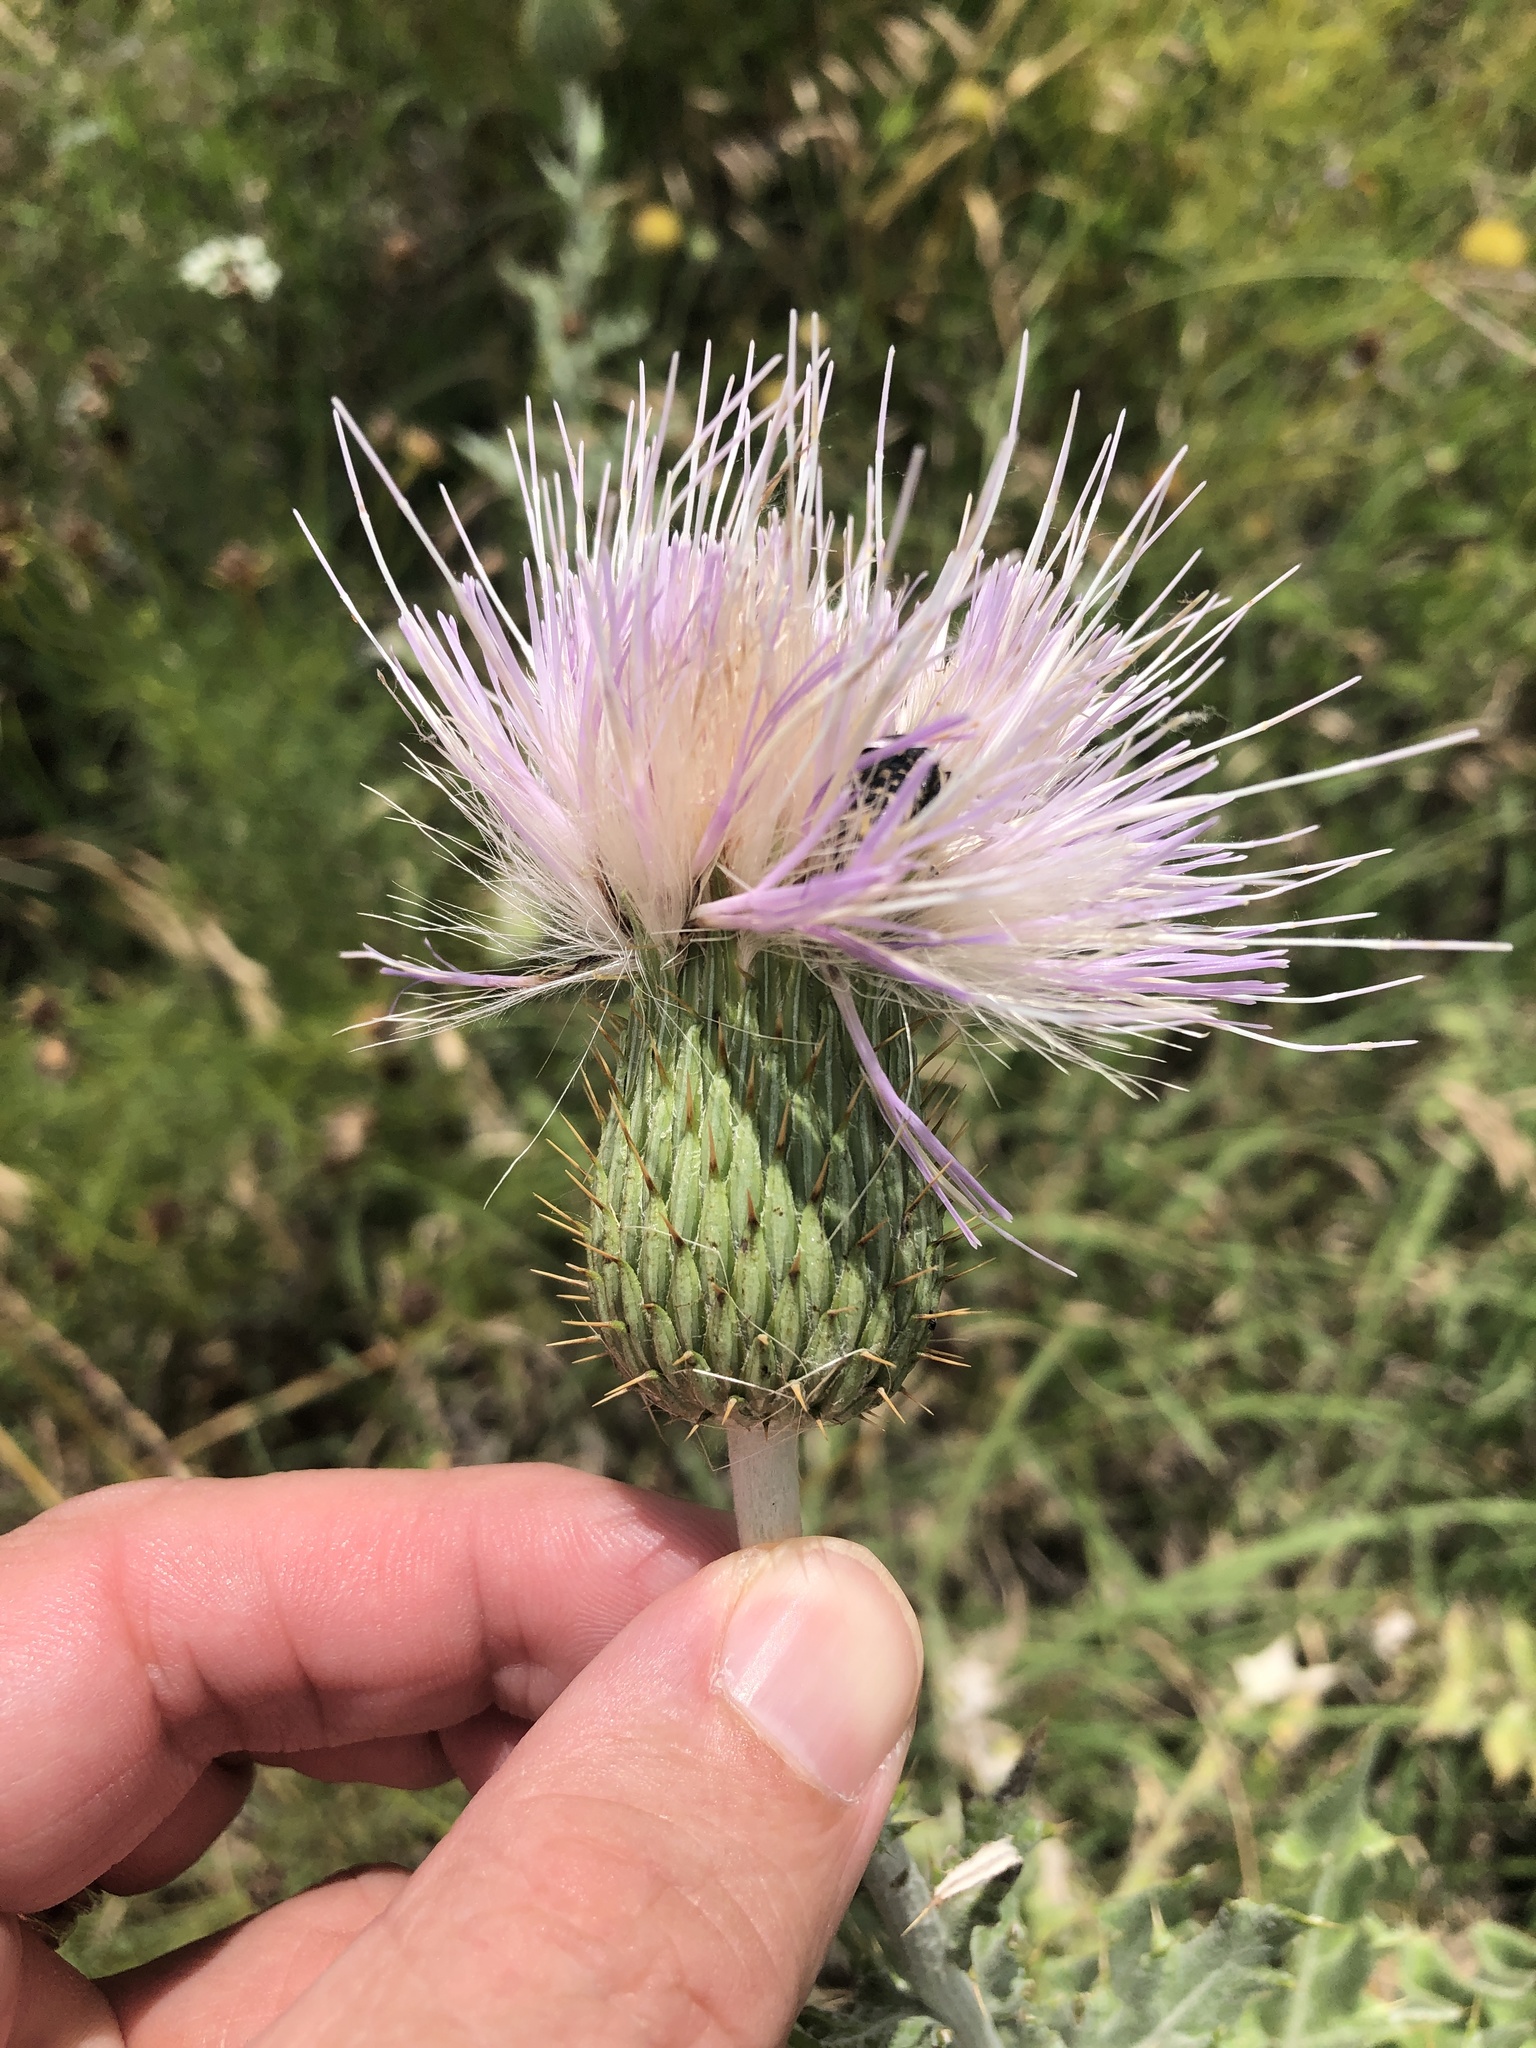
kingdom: Plantae
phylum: Tracheophyta
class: Magnoliopsida
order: Asterales
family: Asteraceae
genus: Cirsium
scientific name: Cirsium undulatum
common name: Pasture thistle
